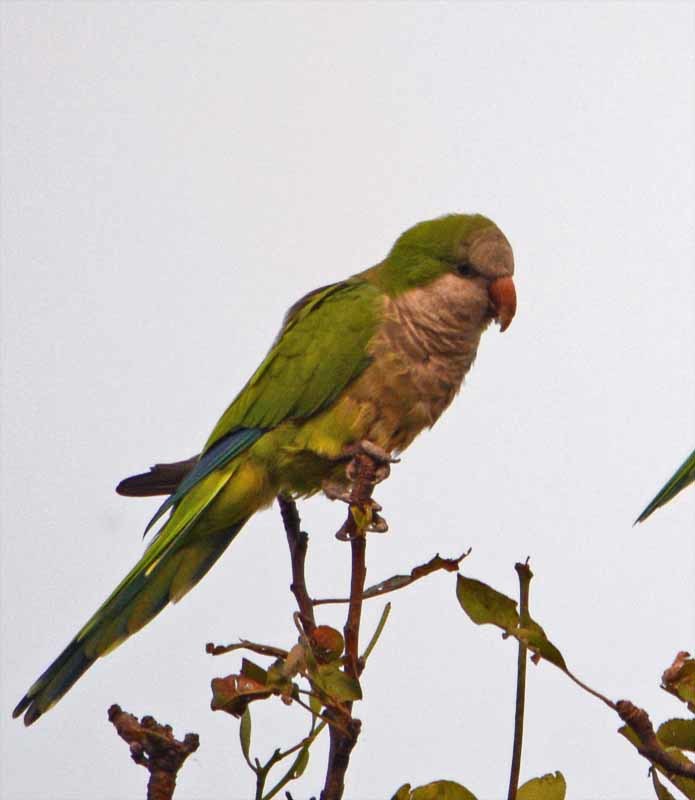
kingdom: Animalia
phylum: Chordata
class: Aves
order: Psittaciformes
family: Psittacidae
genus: Myiopsitta
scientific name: Myiopsitta monachus
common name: Monk parakeet
